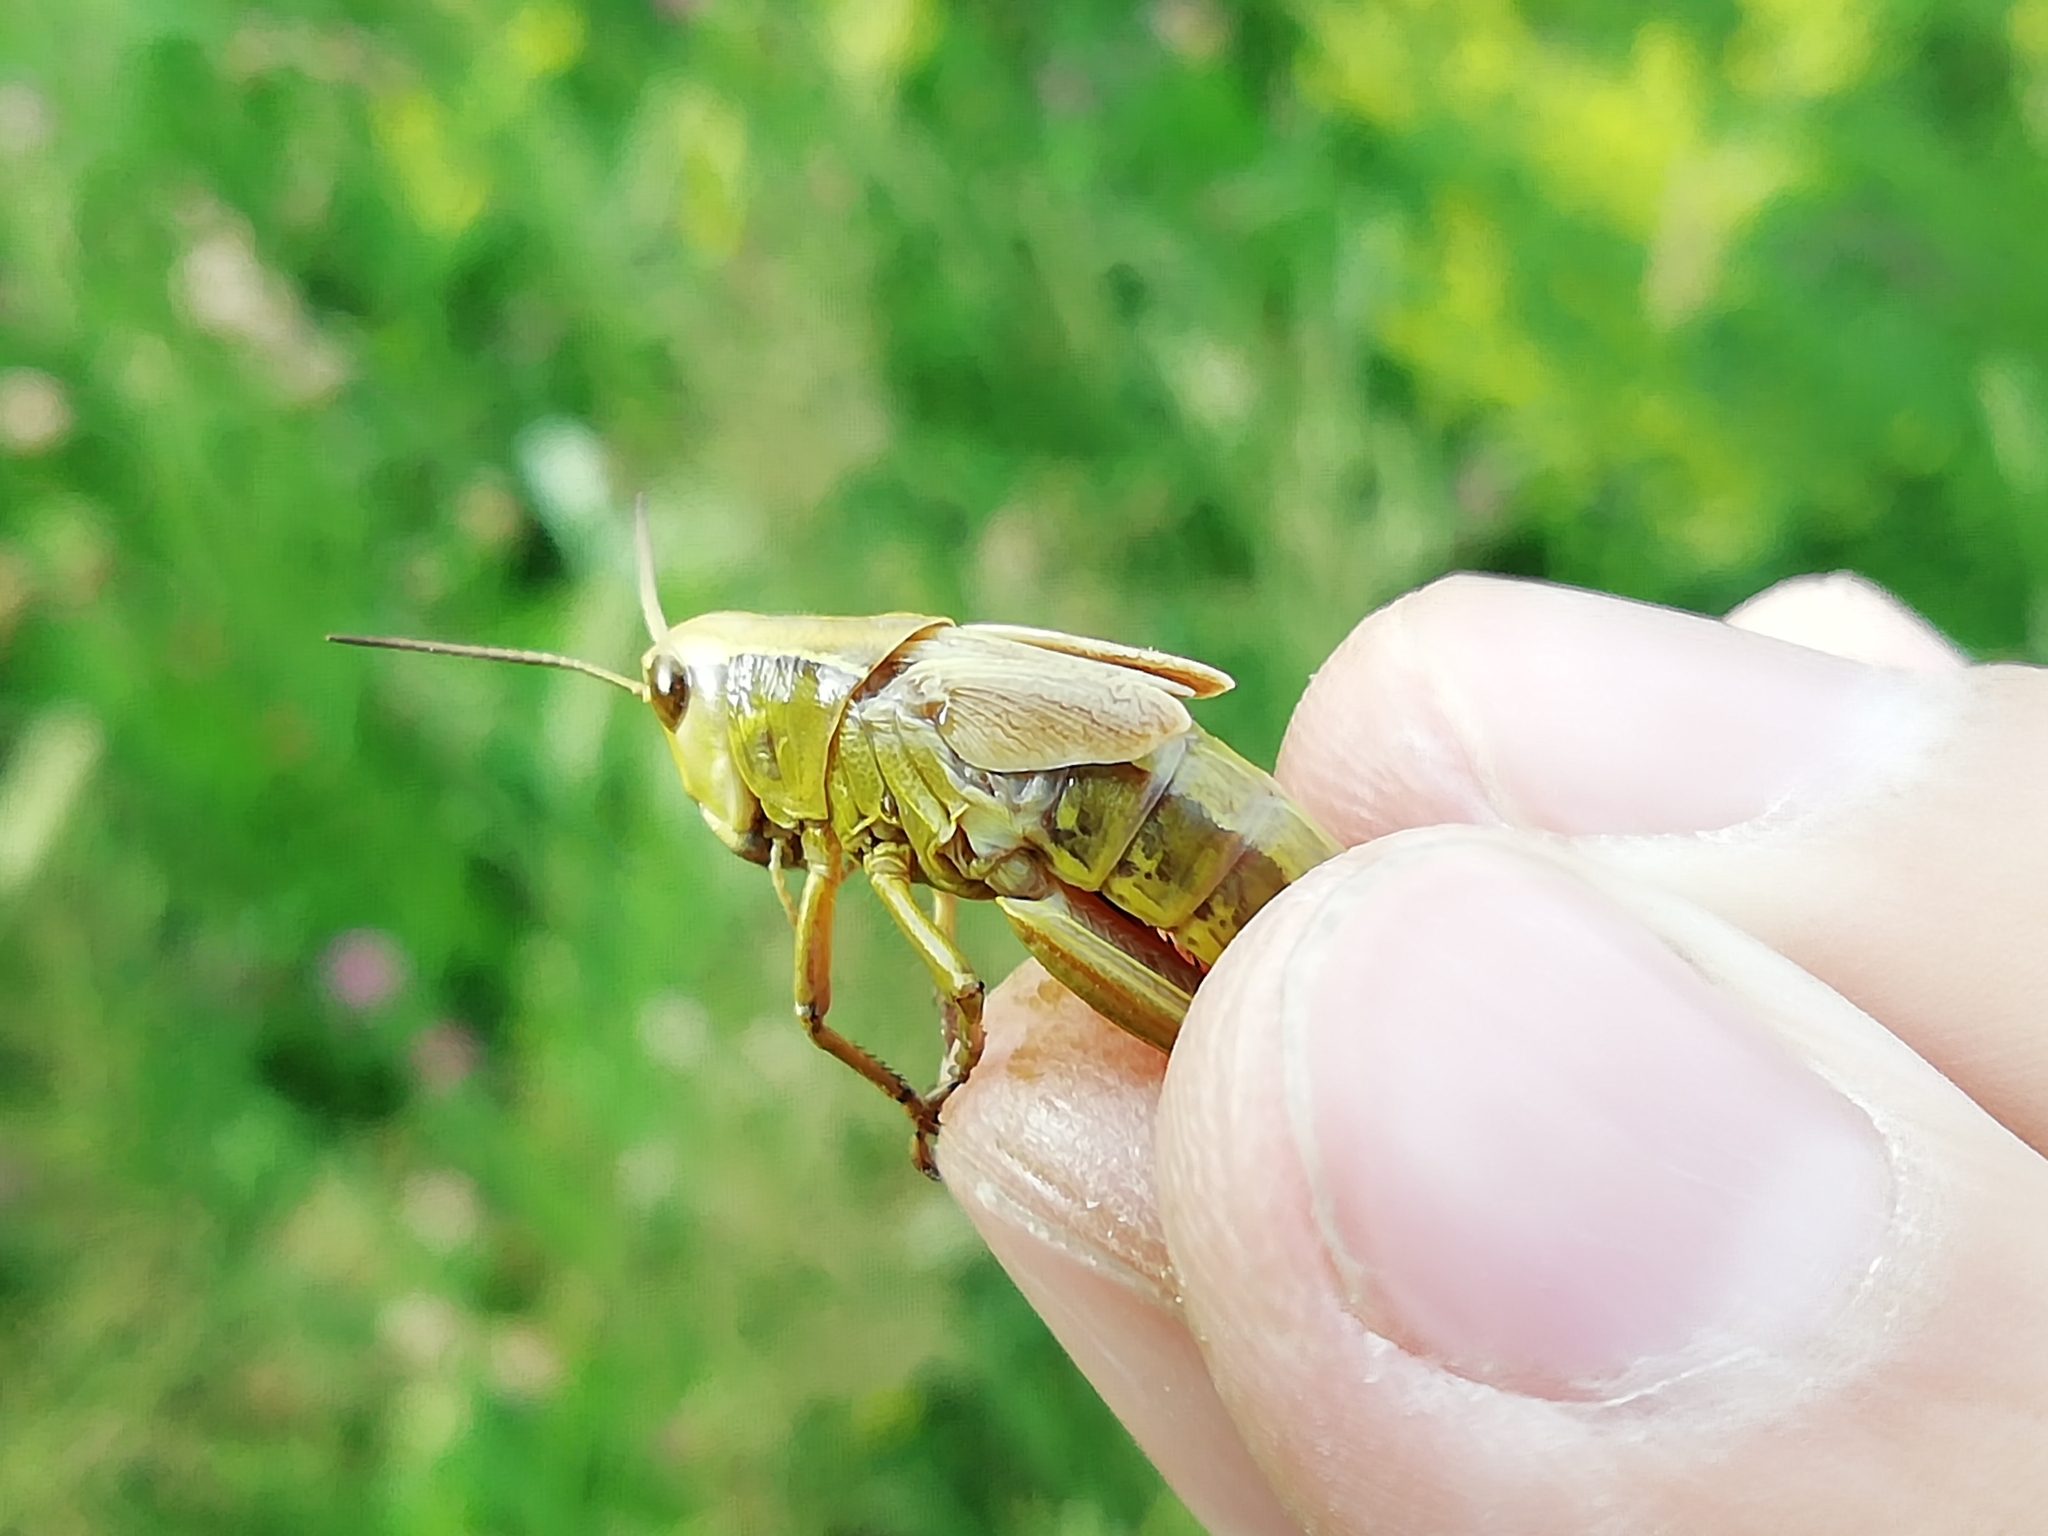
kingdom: Animalia
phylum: Arthropoda
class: Insecta
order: Orthoptera
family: Acrididae
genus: Stethophyma
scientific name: Stethophyma grossum
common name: Large marsh grasshopper
